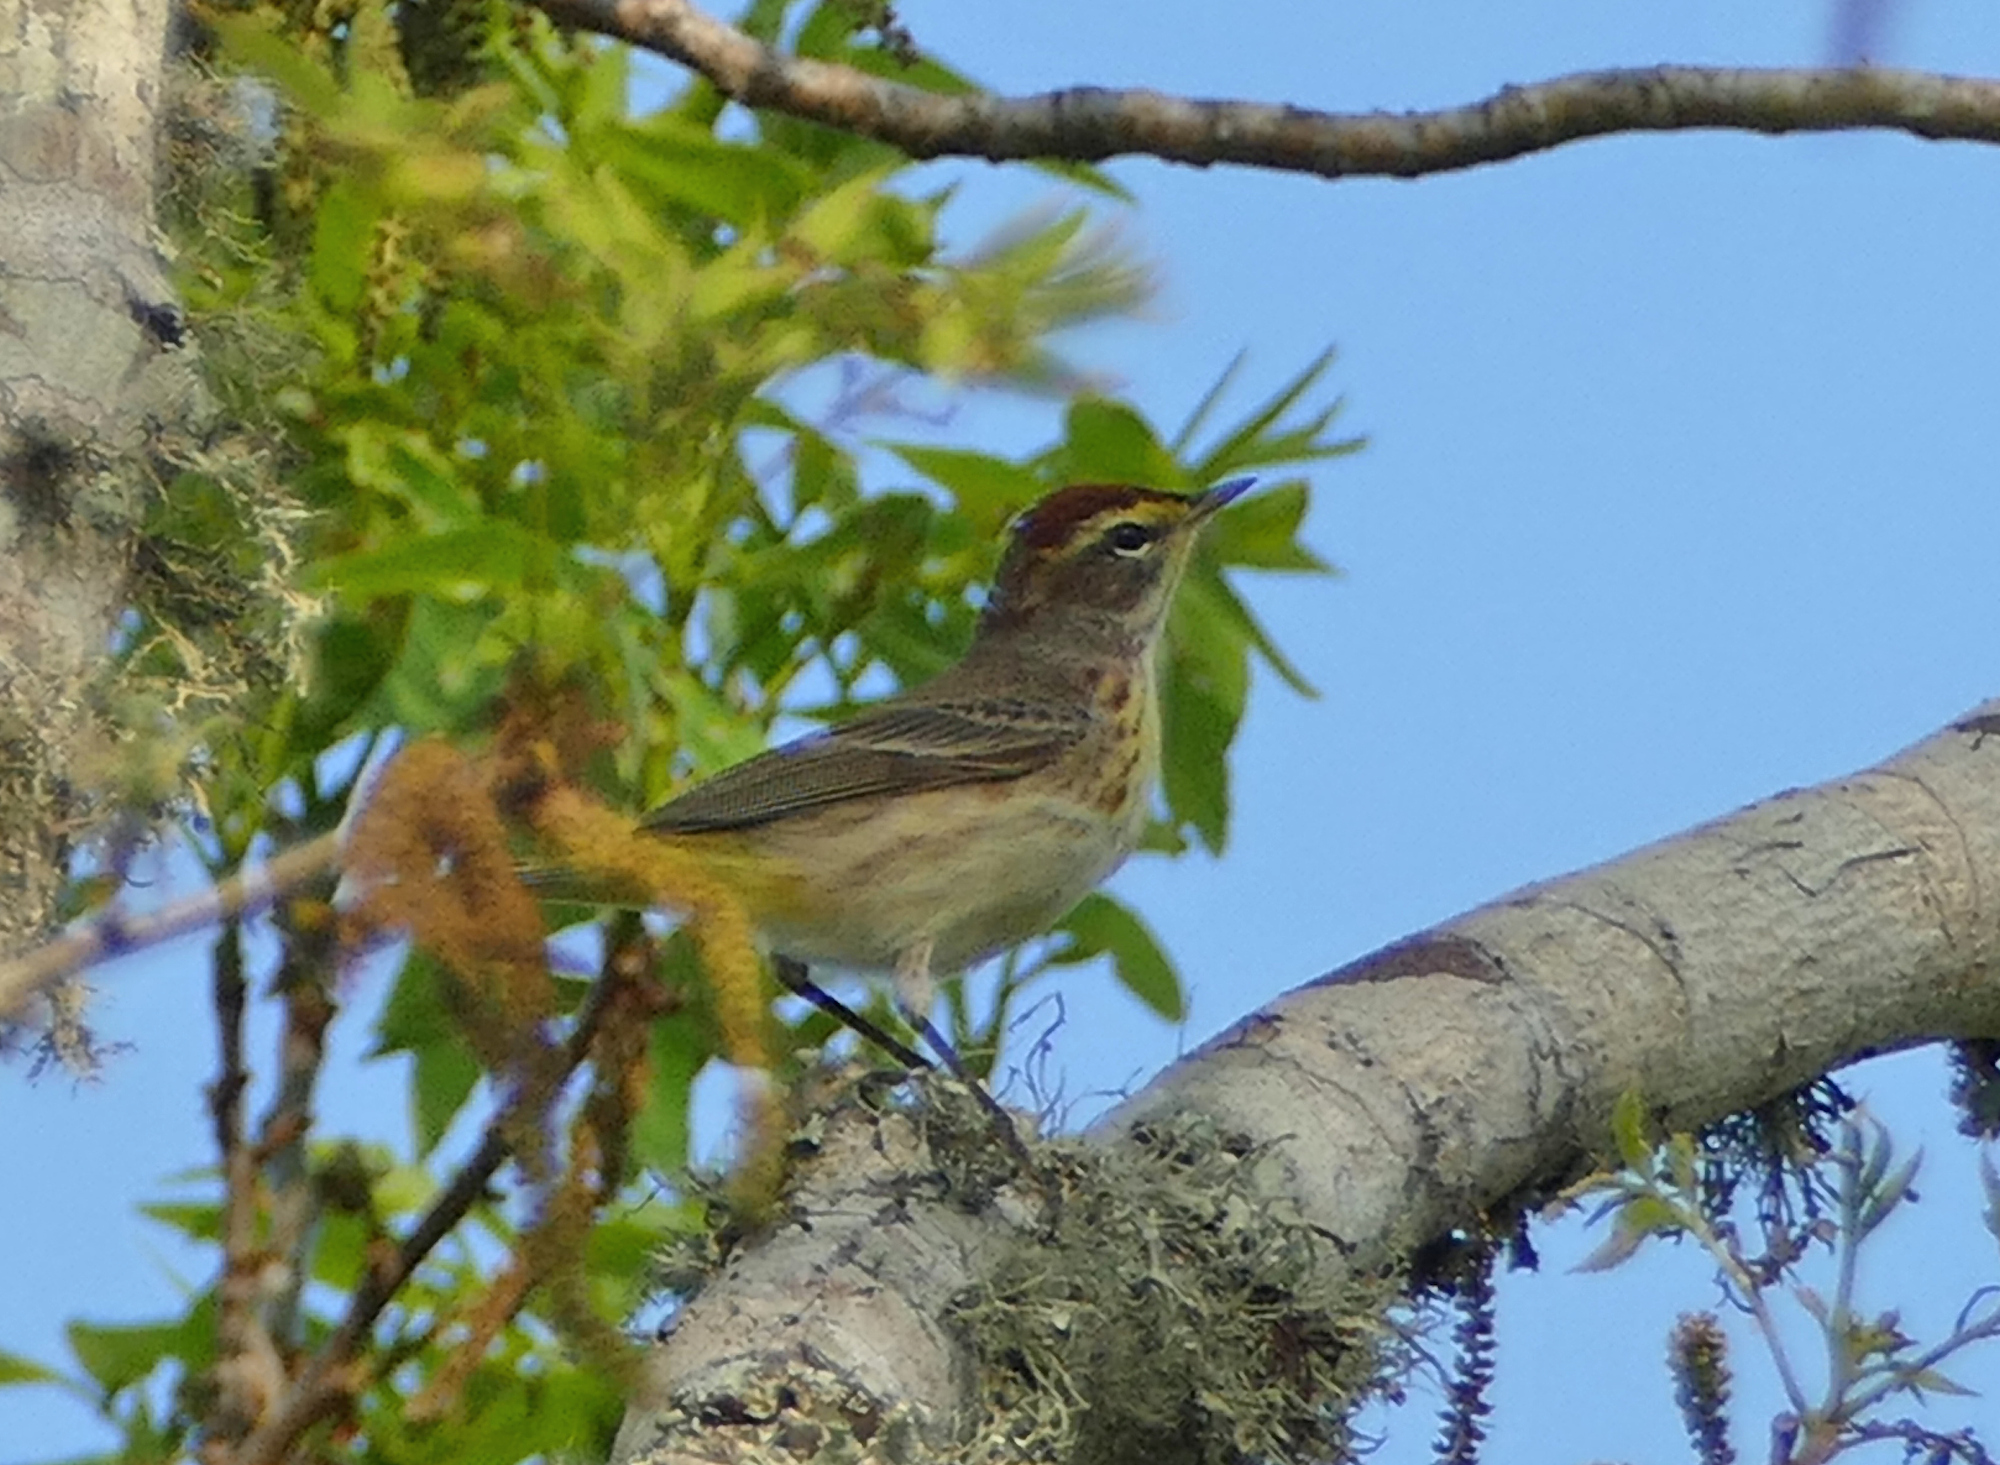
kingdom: Animalia
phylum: Chordata
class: Aves
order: Passeriformes
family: Parulidae
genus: Setophaga
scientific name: Setophaga palmarum
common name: Palm warbler
